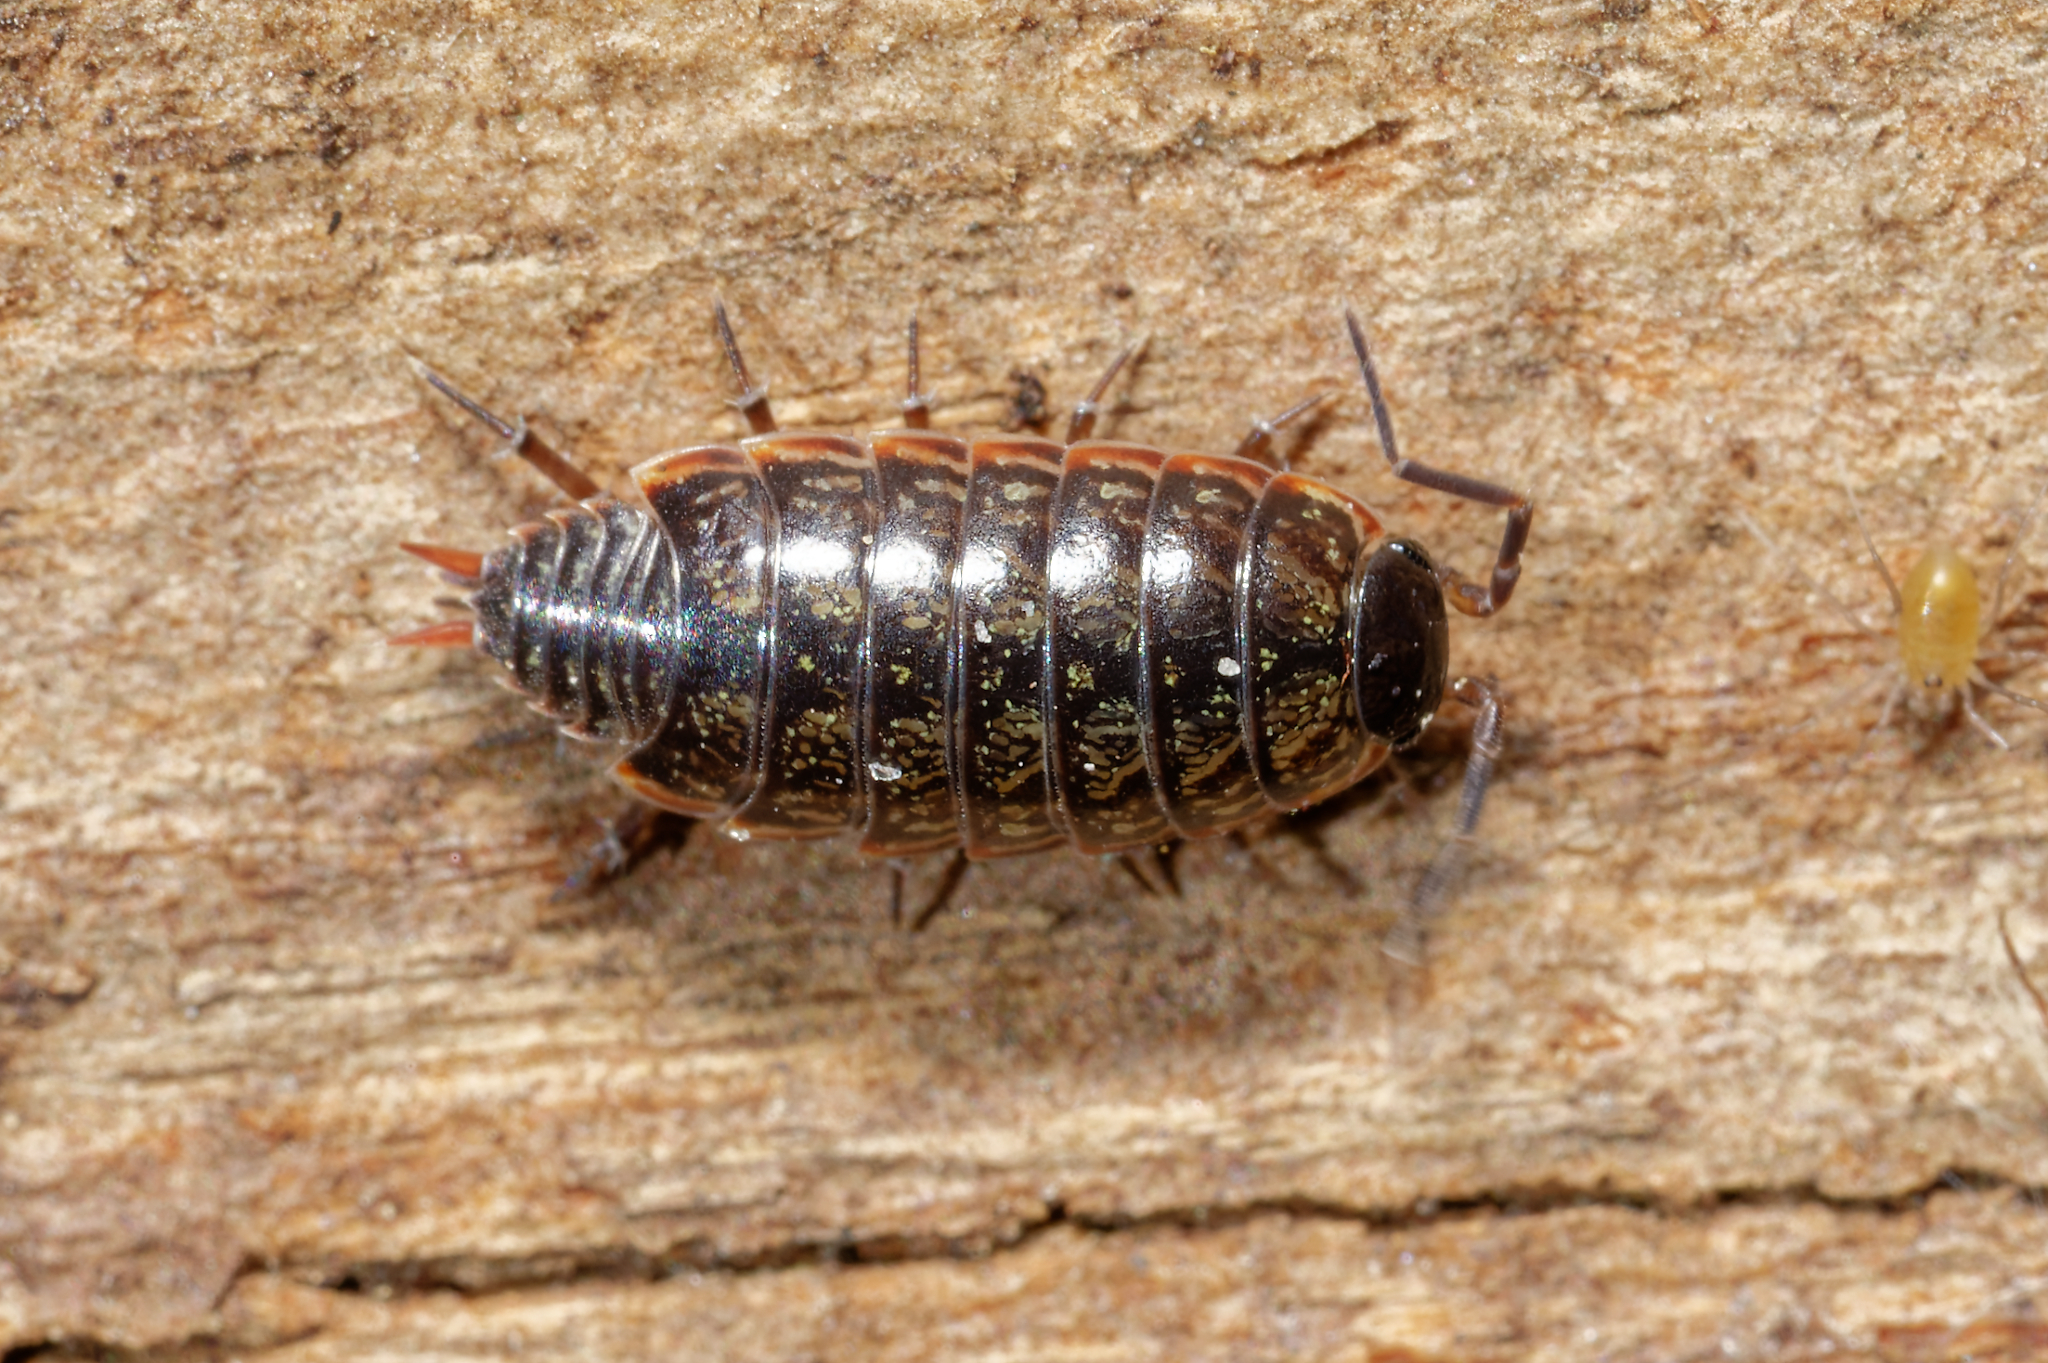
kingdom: Animalia
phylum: Arthropoda
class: Malacostraca
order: Isopoda
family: Philosciidae
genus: Philoscia
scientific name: Philoscia muscorum
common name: Common striped woodlouse
